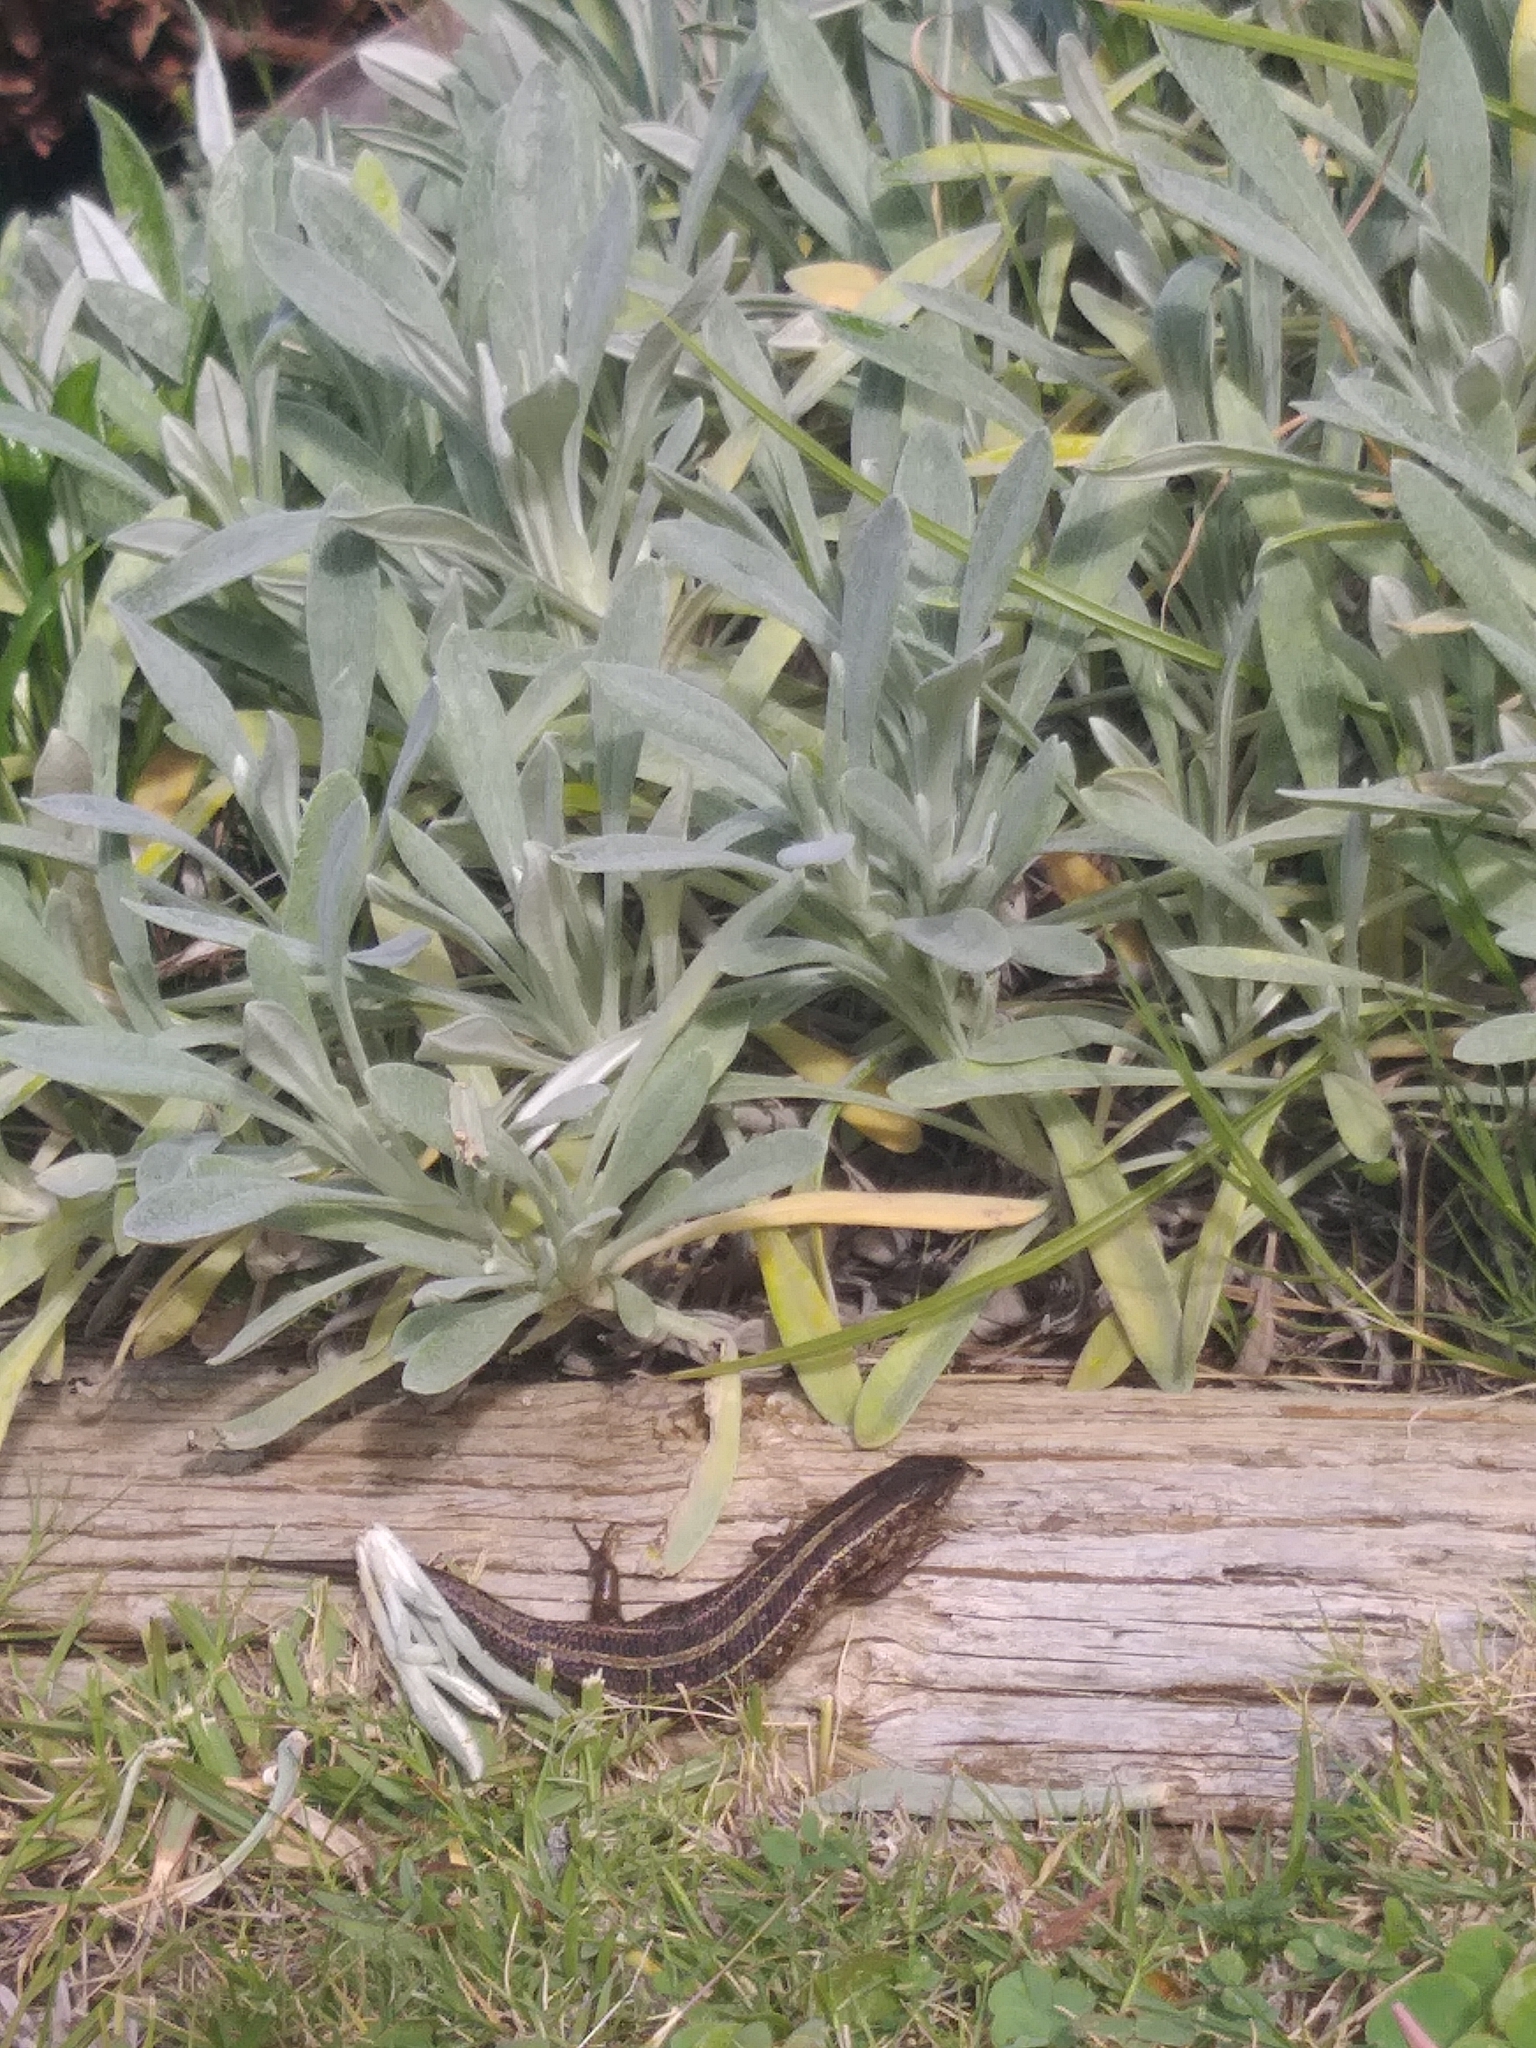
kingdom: Animalia
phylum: Chordata
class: Squamata
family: Scincidae
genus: Trachylepis
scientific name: Trachylepis capensis
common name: Cape skink
